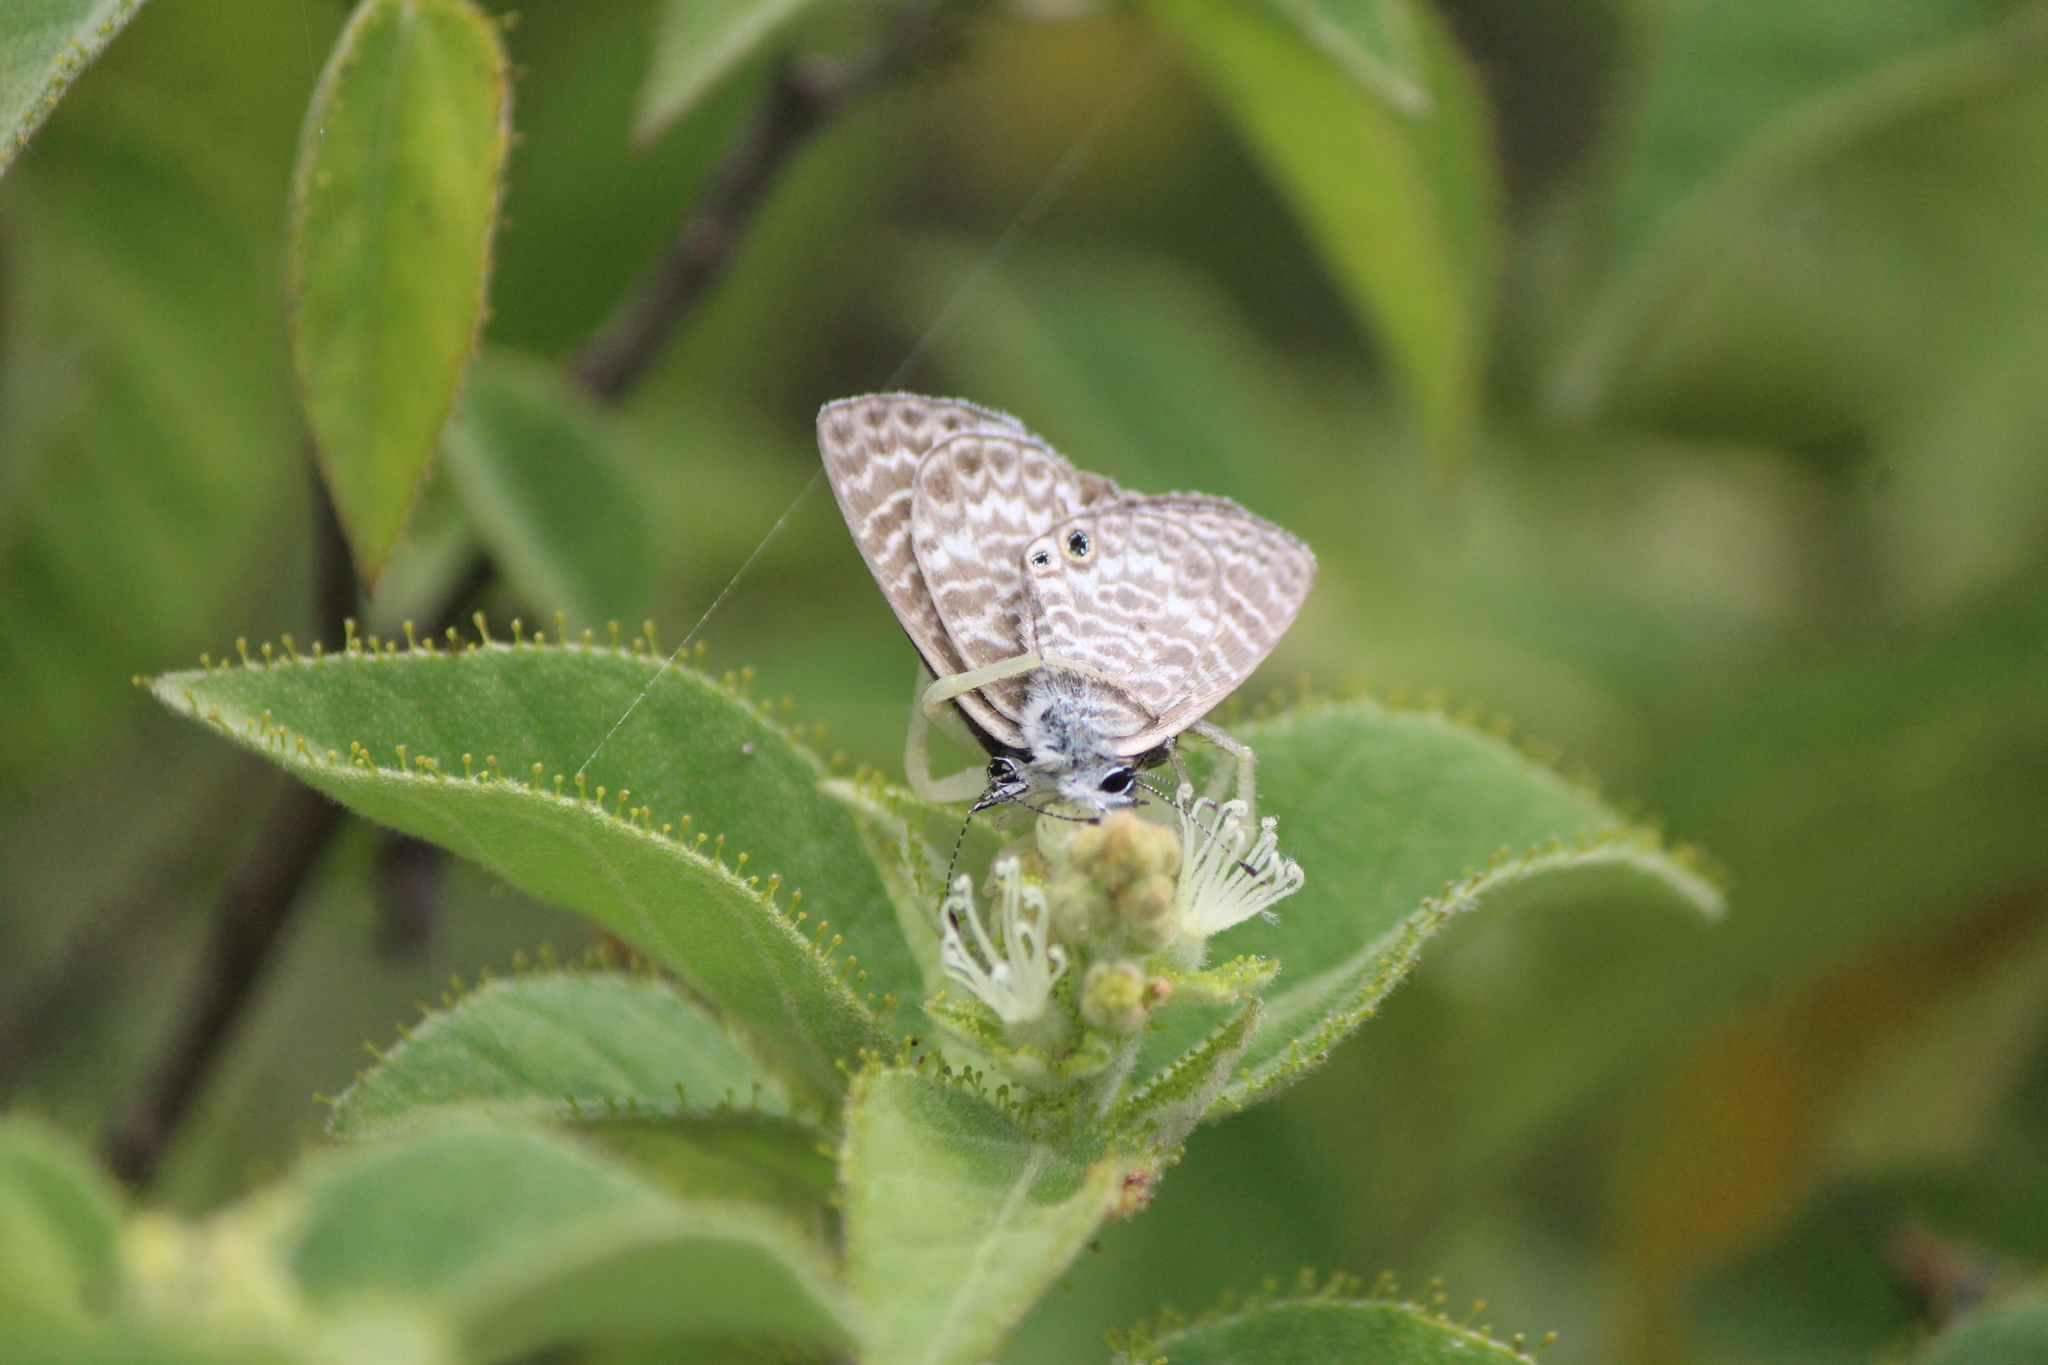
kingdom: Animalia
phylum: Arthropoda
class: Insecta
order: Lepidoptera
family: Lycaenidae
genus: Leptotes
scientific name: Leptotes marina
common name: Marine blue
